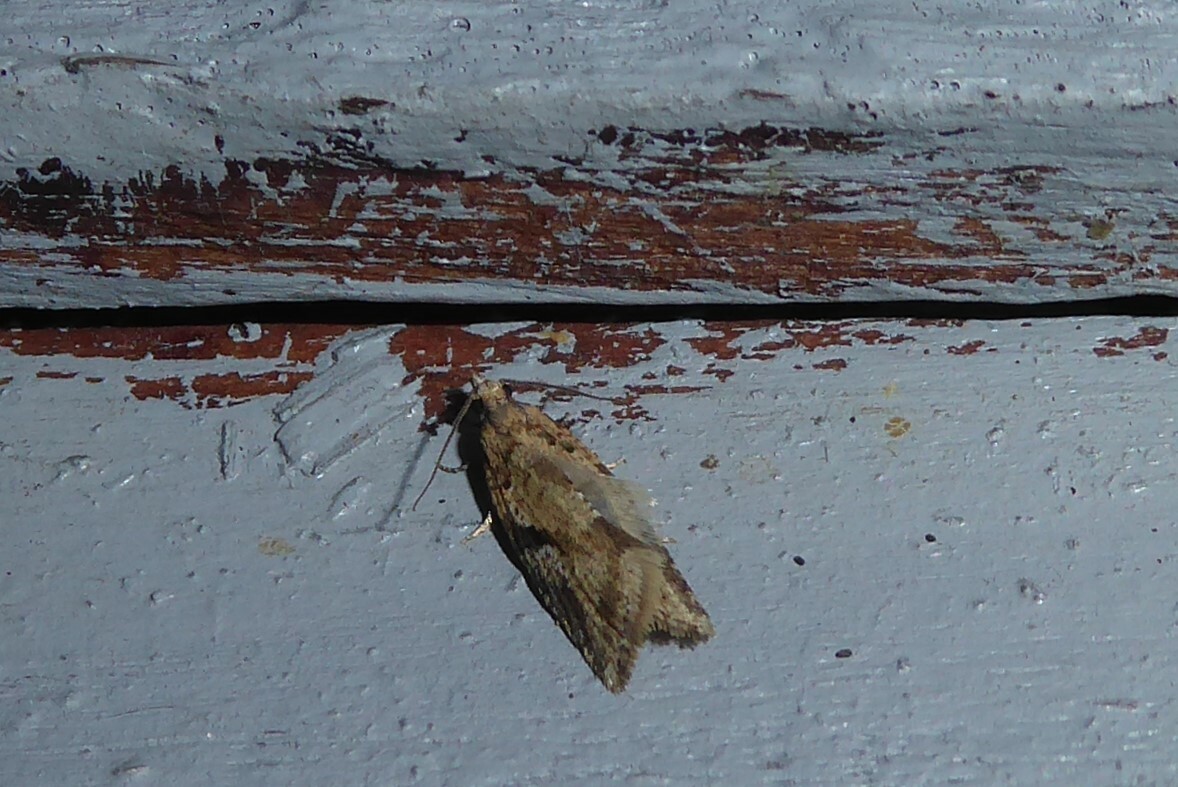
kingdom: Animalia
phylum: Arthropoda
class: Insecta
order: Lepidoptera
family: Tortricidae
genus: Capua
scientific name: Capua semiferana
